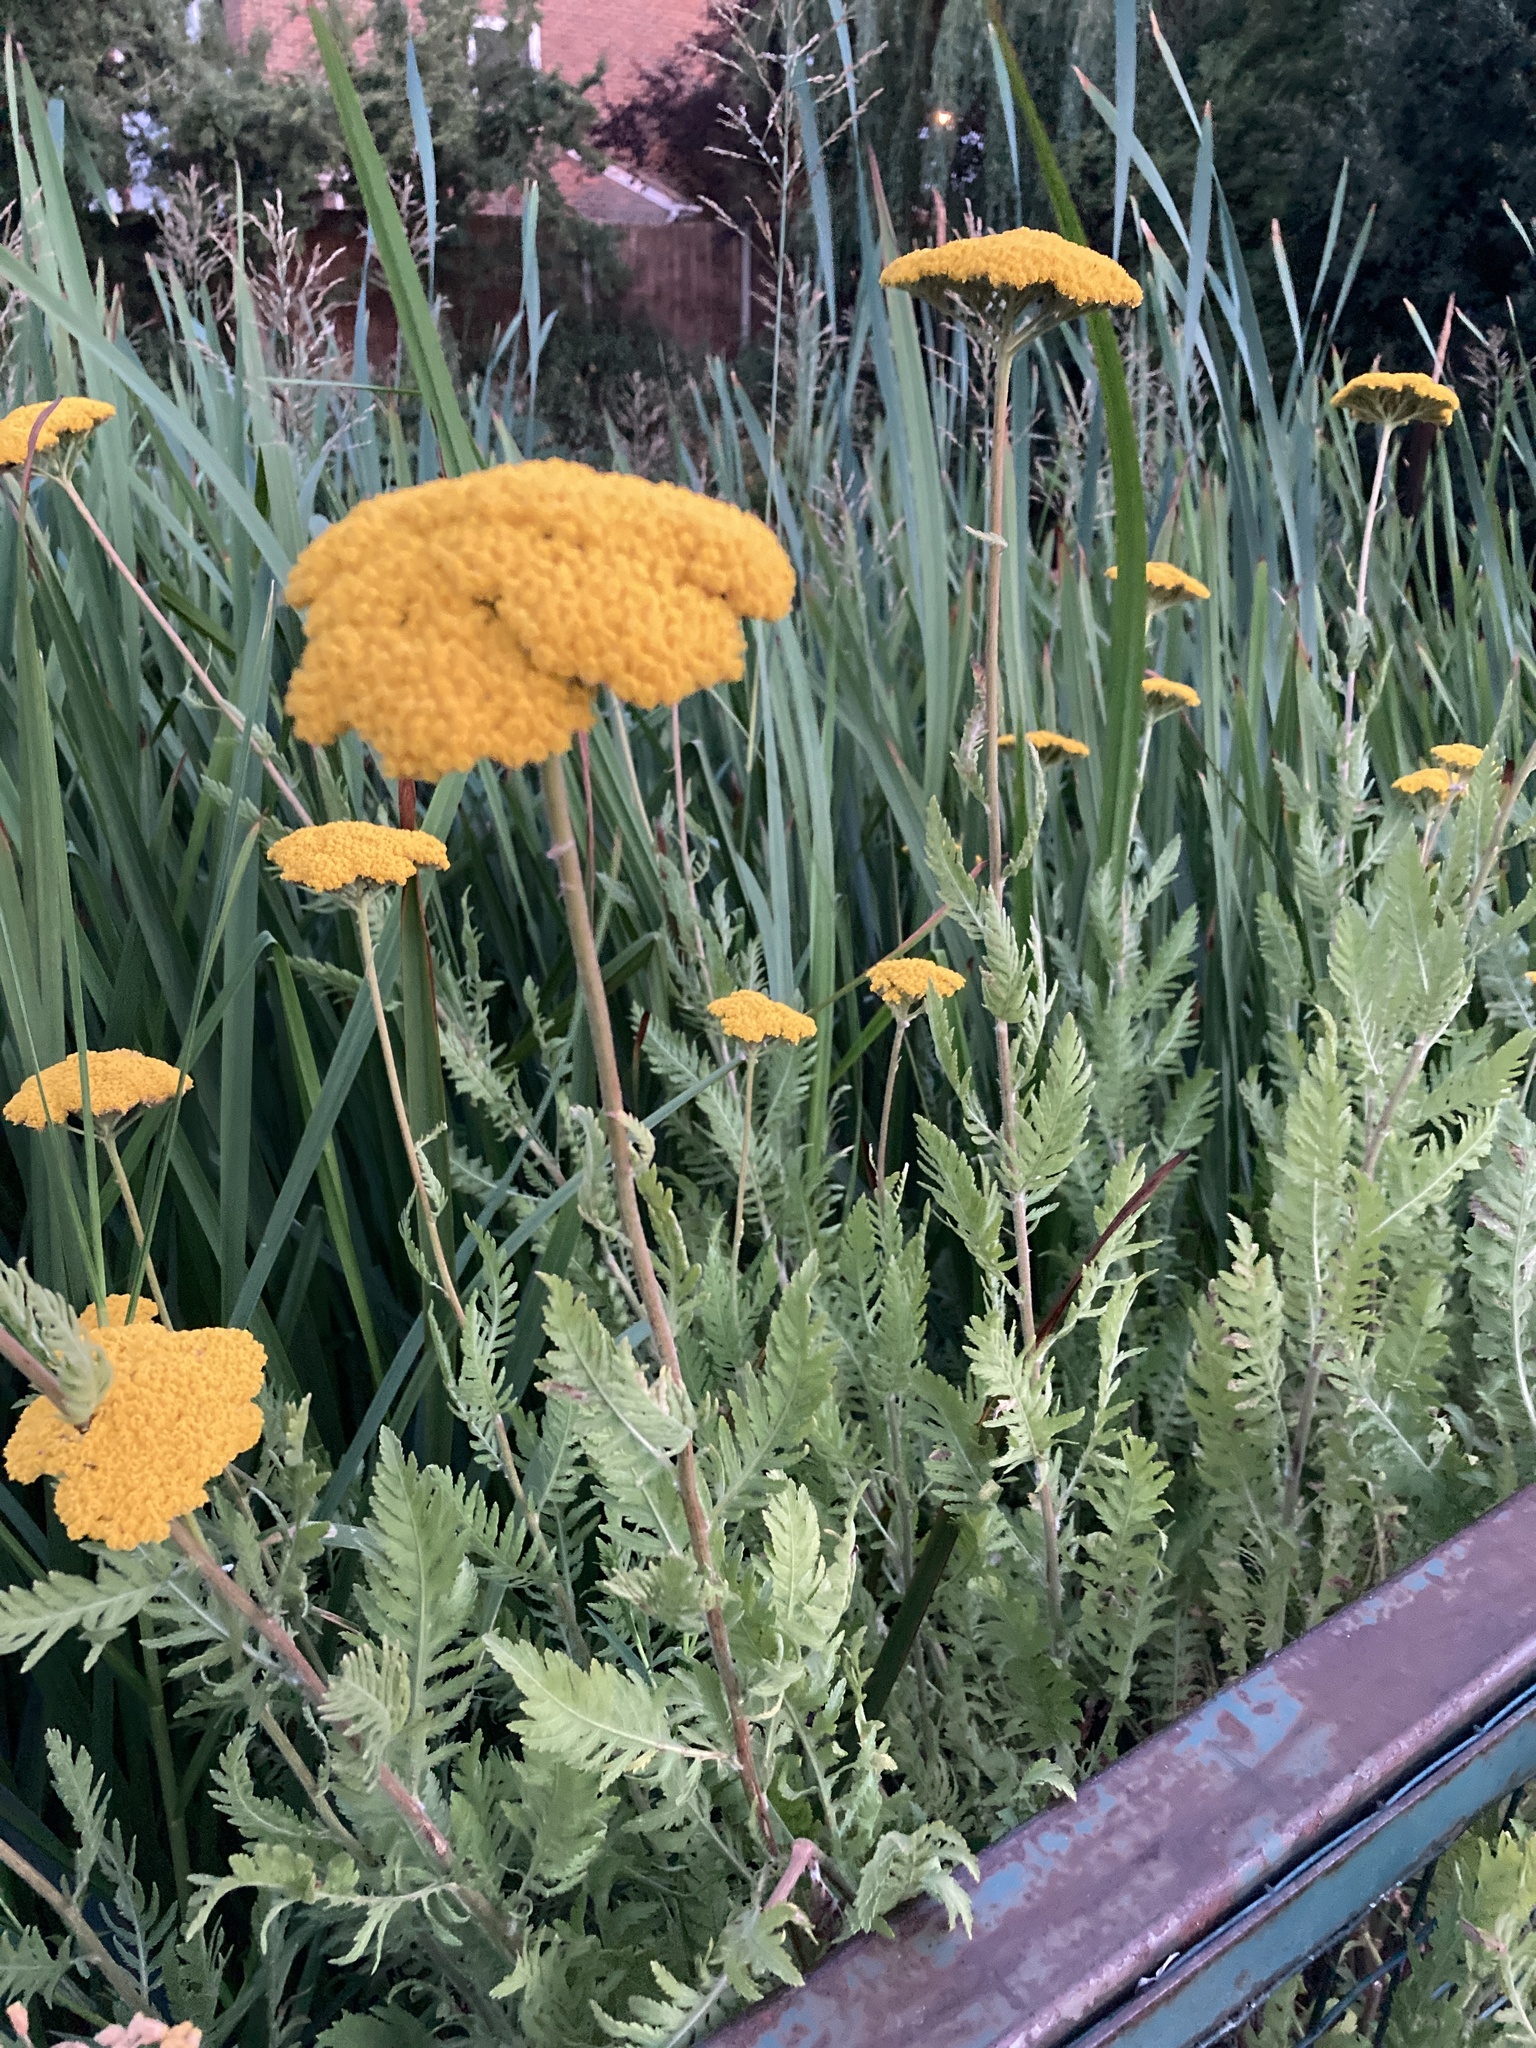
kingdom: Plantae
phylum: Tracheophyta
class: Magnoliopsida
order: Asterales
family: Asteraceae
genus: Achillea
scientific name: Achillea filipendulina
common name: Fernleaf yarrow
